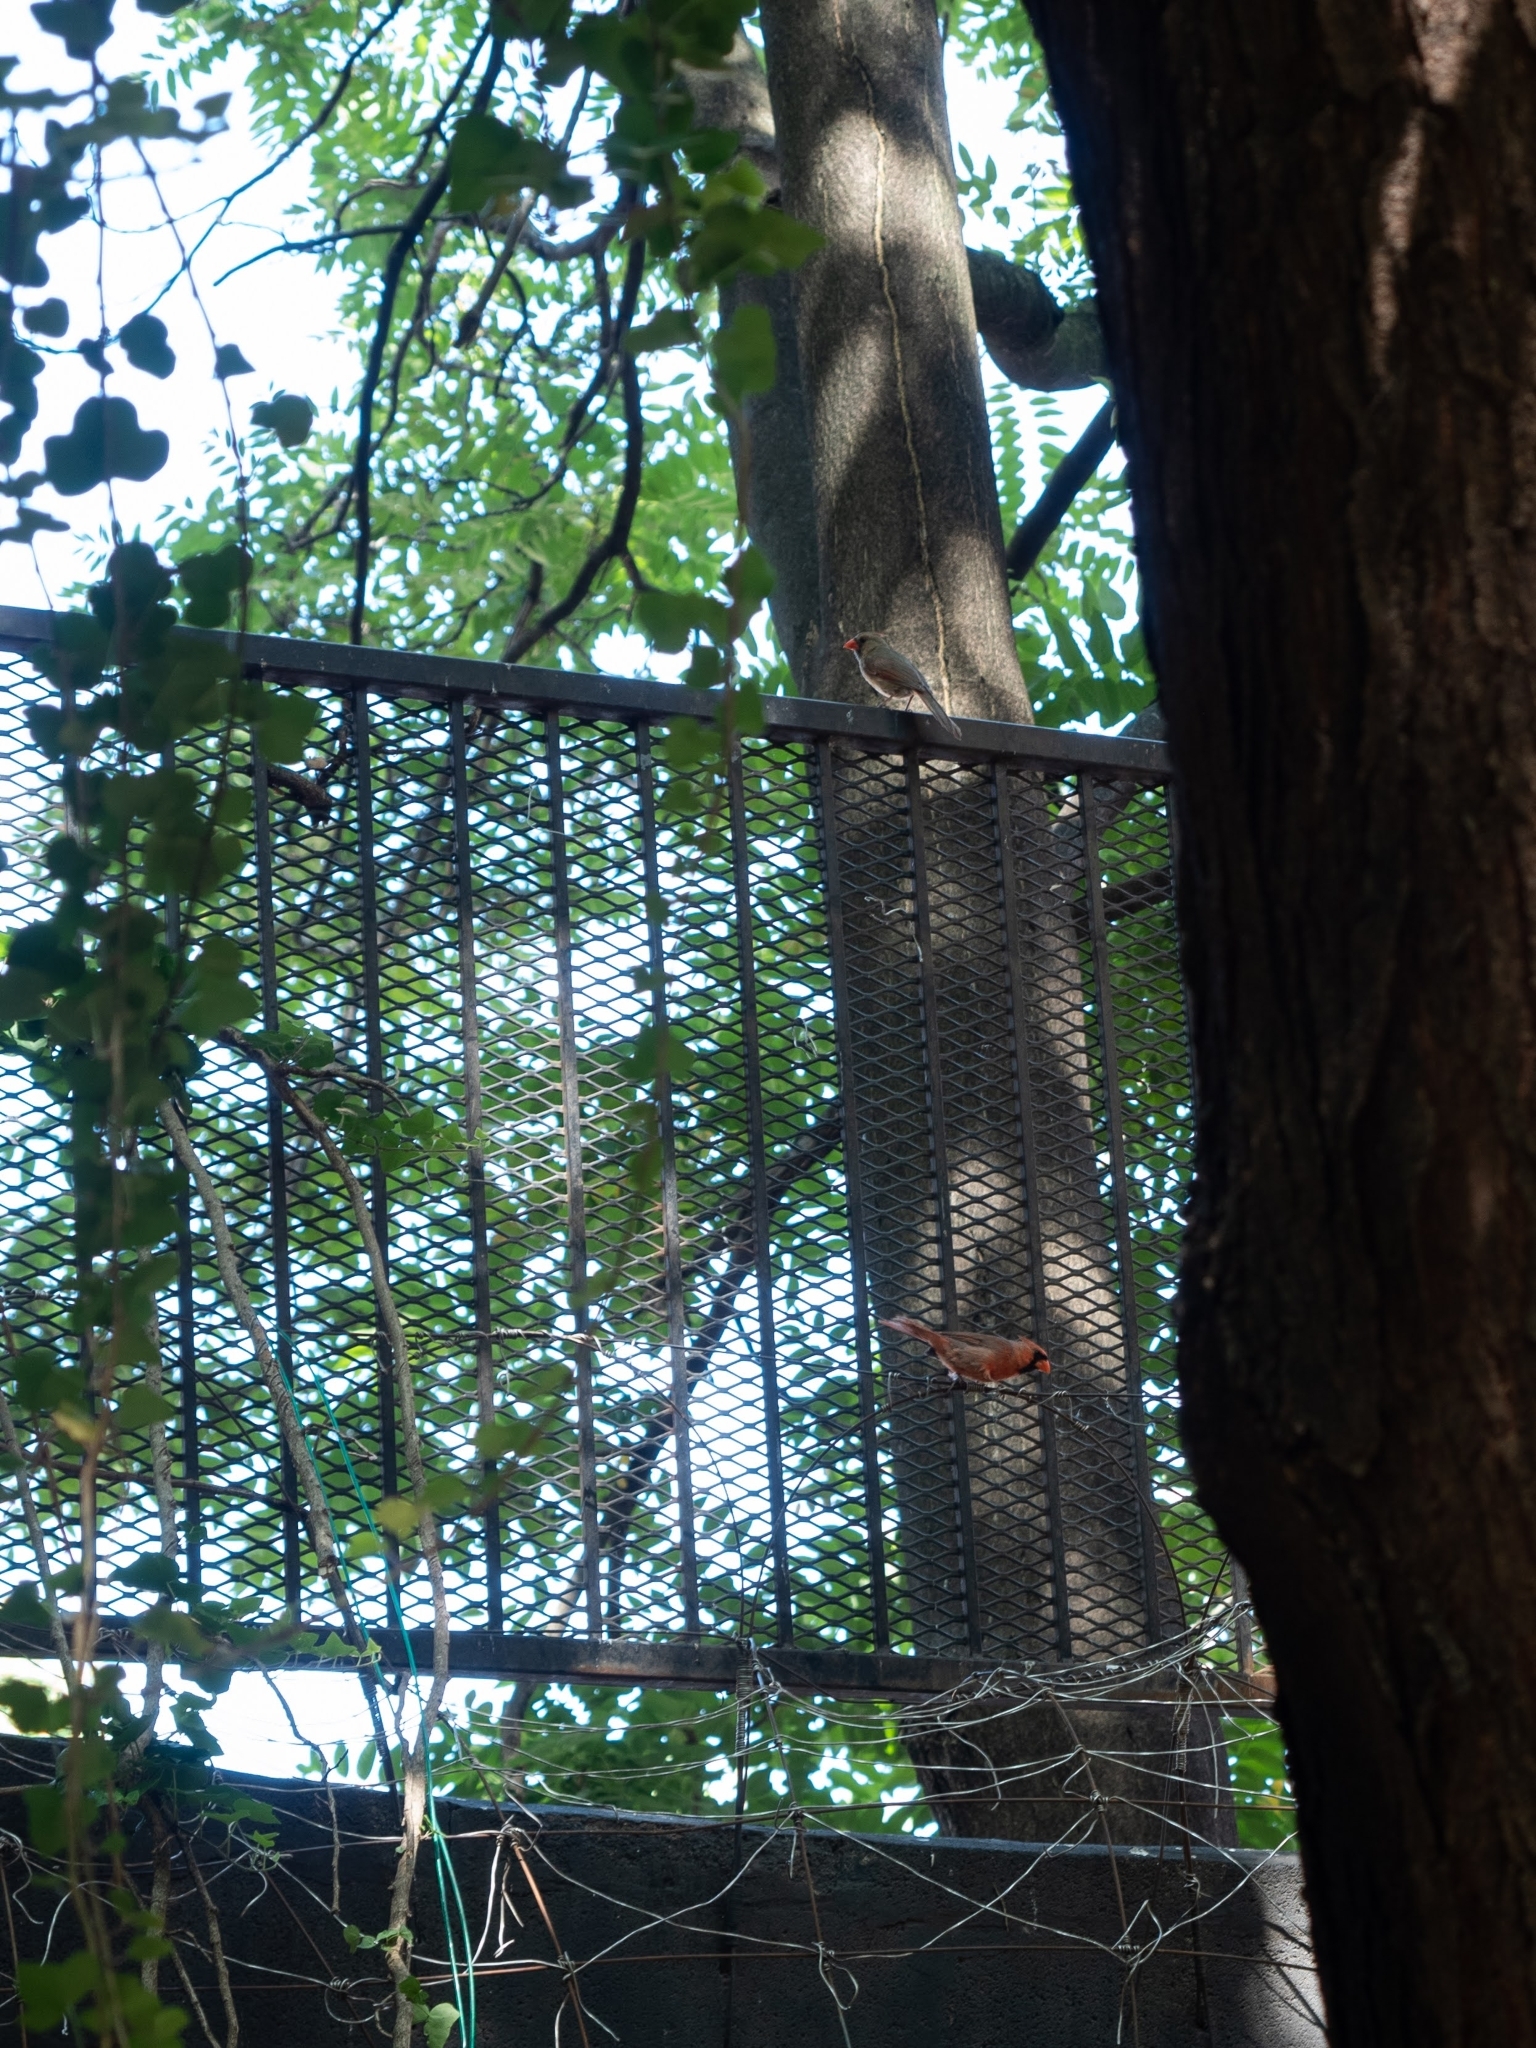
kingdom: Animalia
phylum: Chordata
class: Aves
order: Passeriformes
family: Cardinalidae
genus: Cardinalis
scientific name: Cardinalis cardinalis
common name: Northern cardinal
